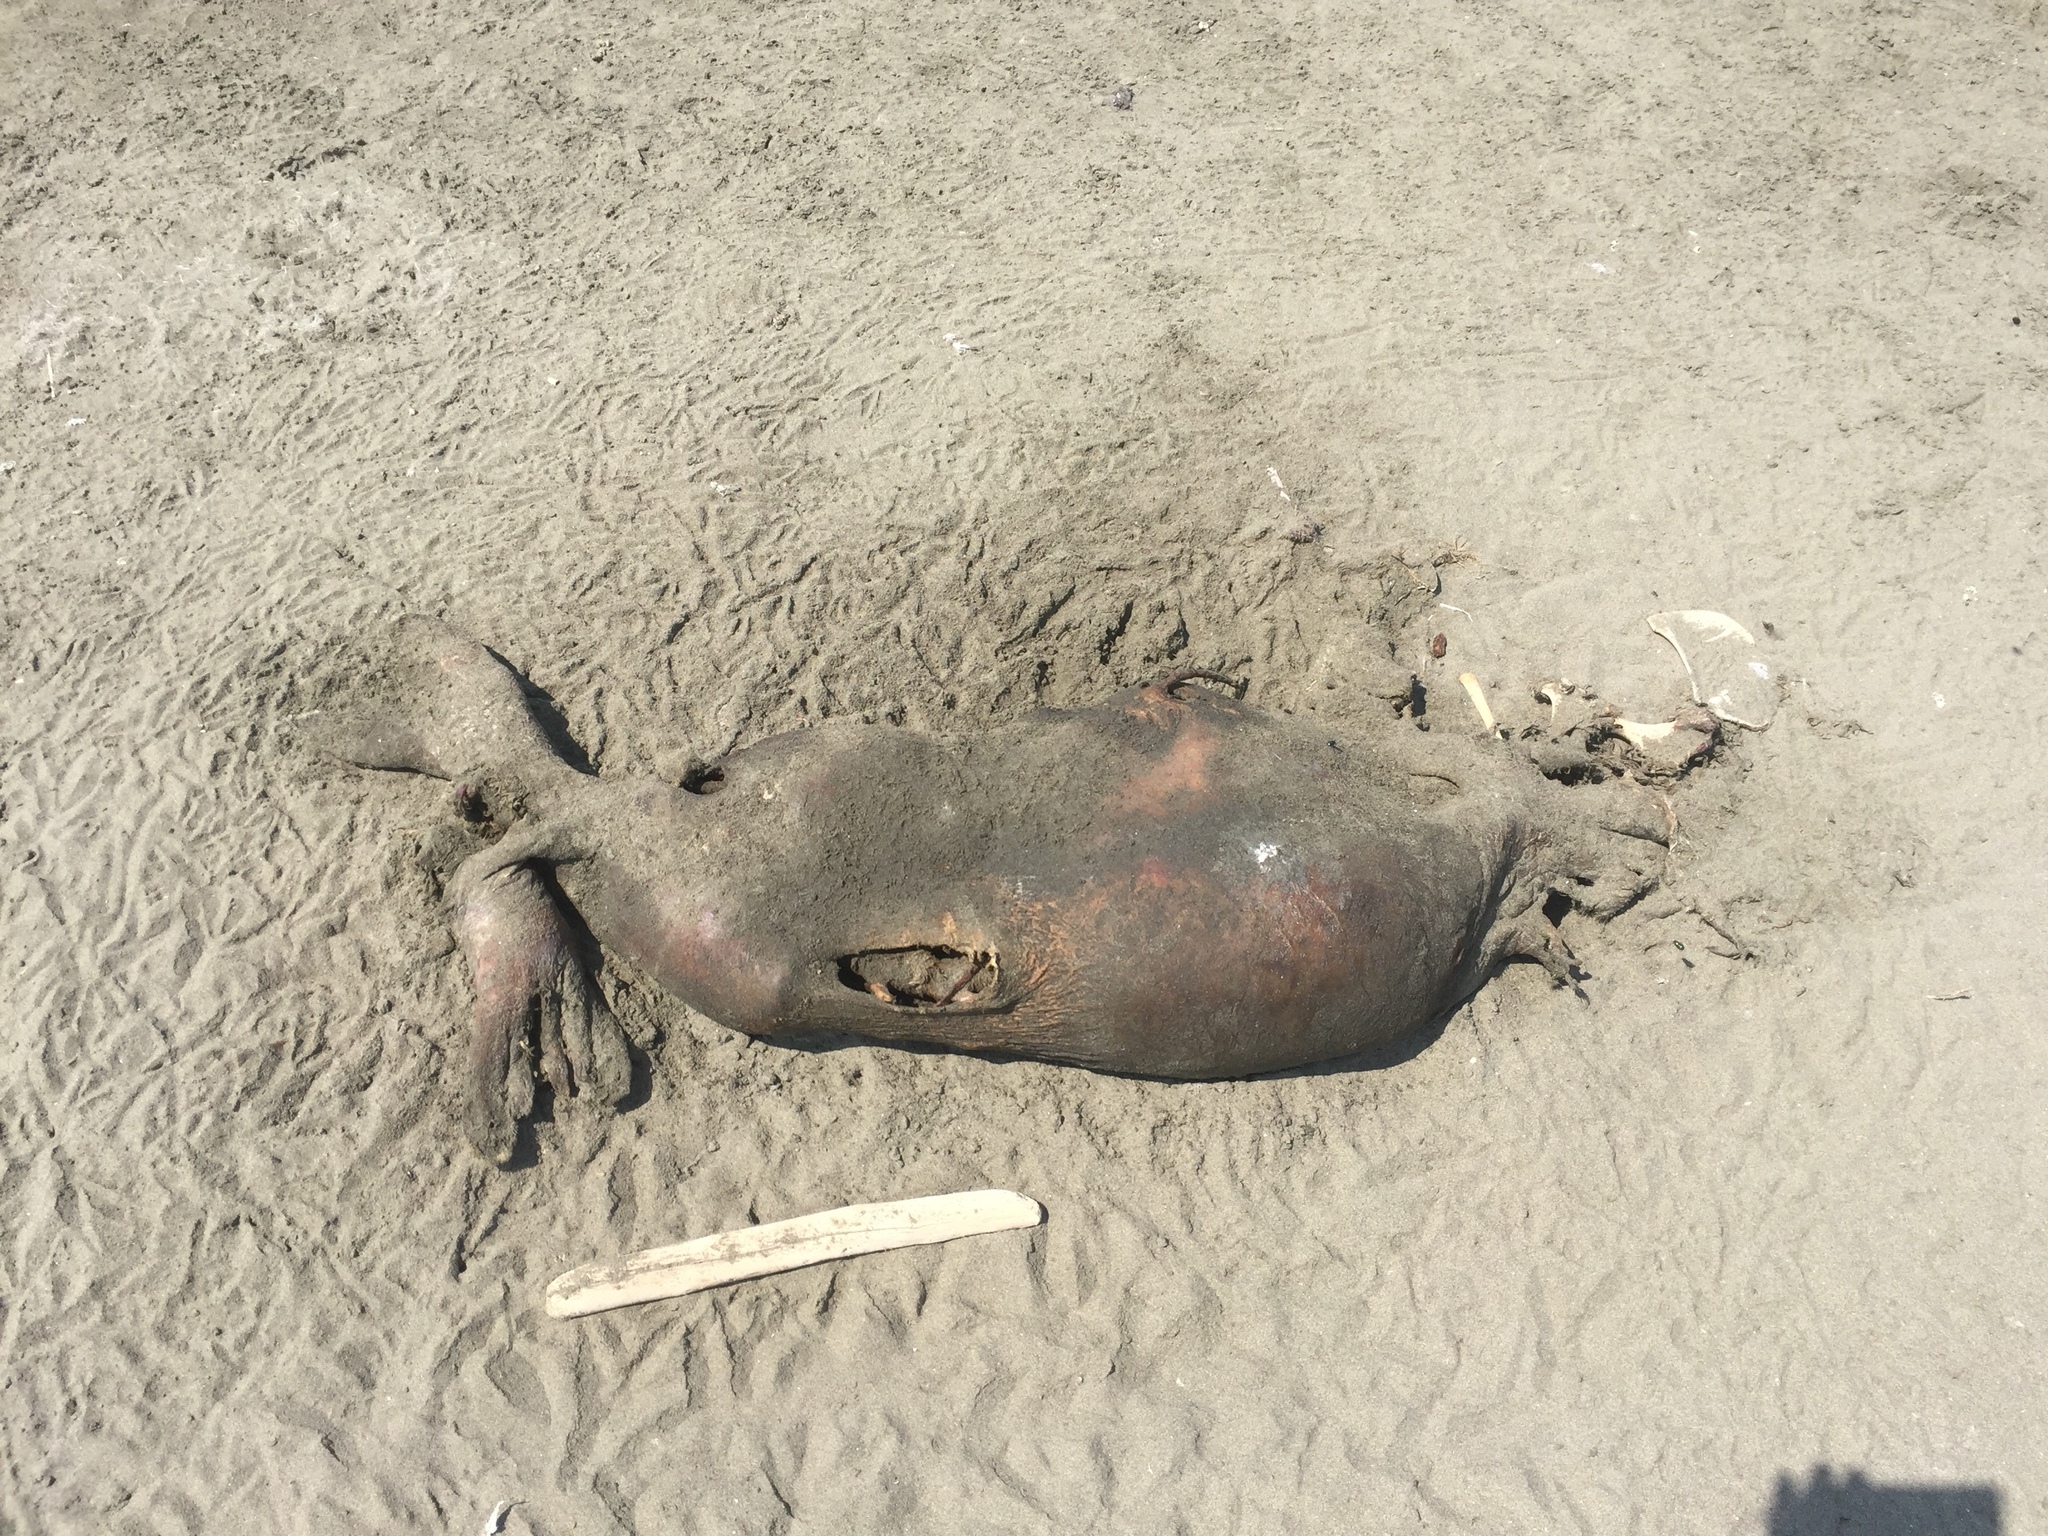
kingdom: Animalia
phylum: Chordata
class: Mammalia
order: Carnivora
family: Phocidae
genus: Phoca
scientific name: Phoca vitulina
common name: Harbor seal
